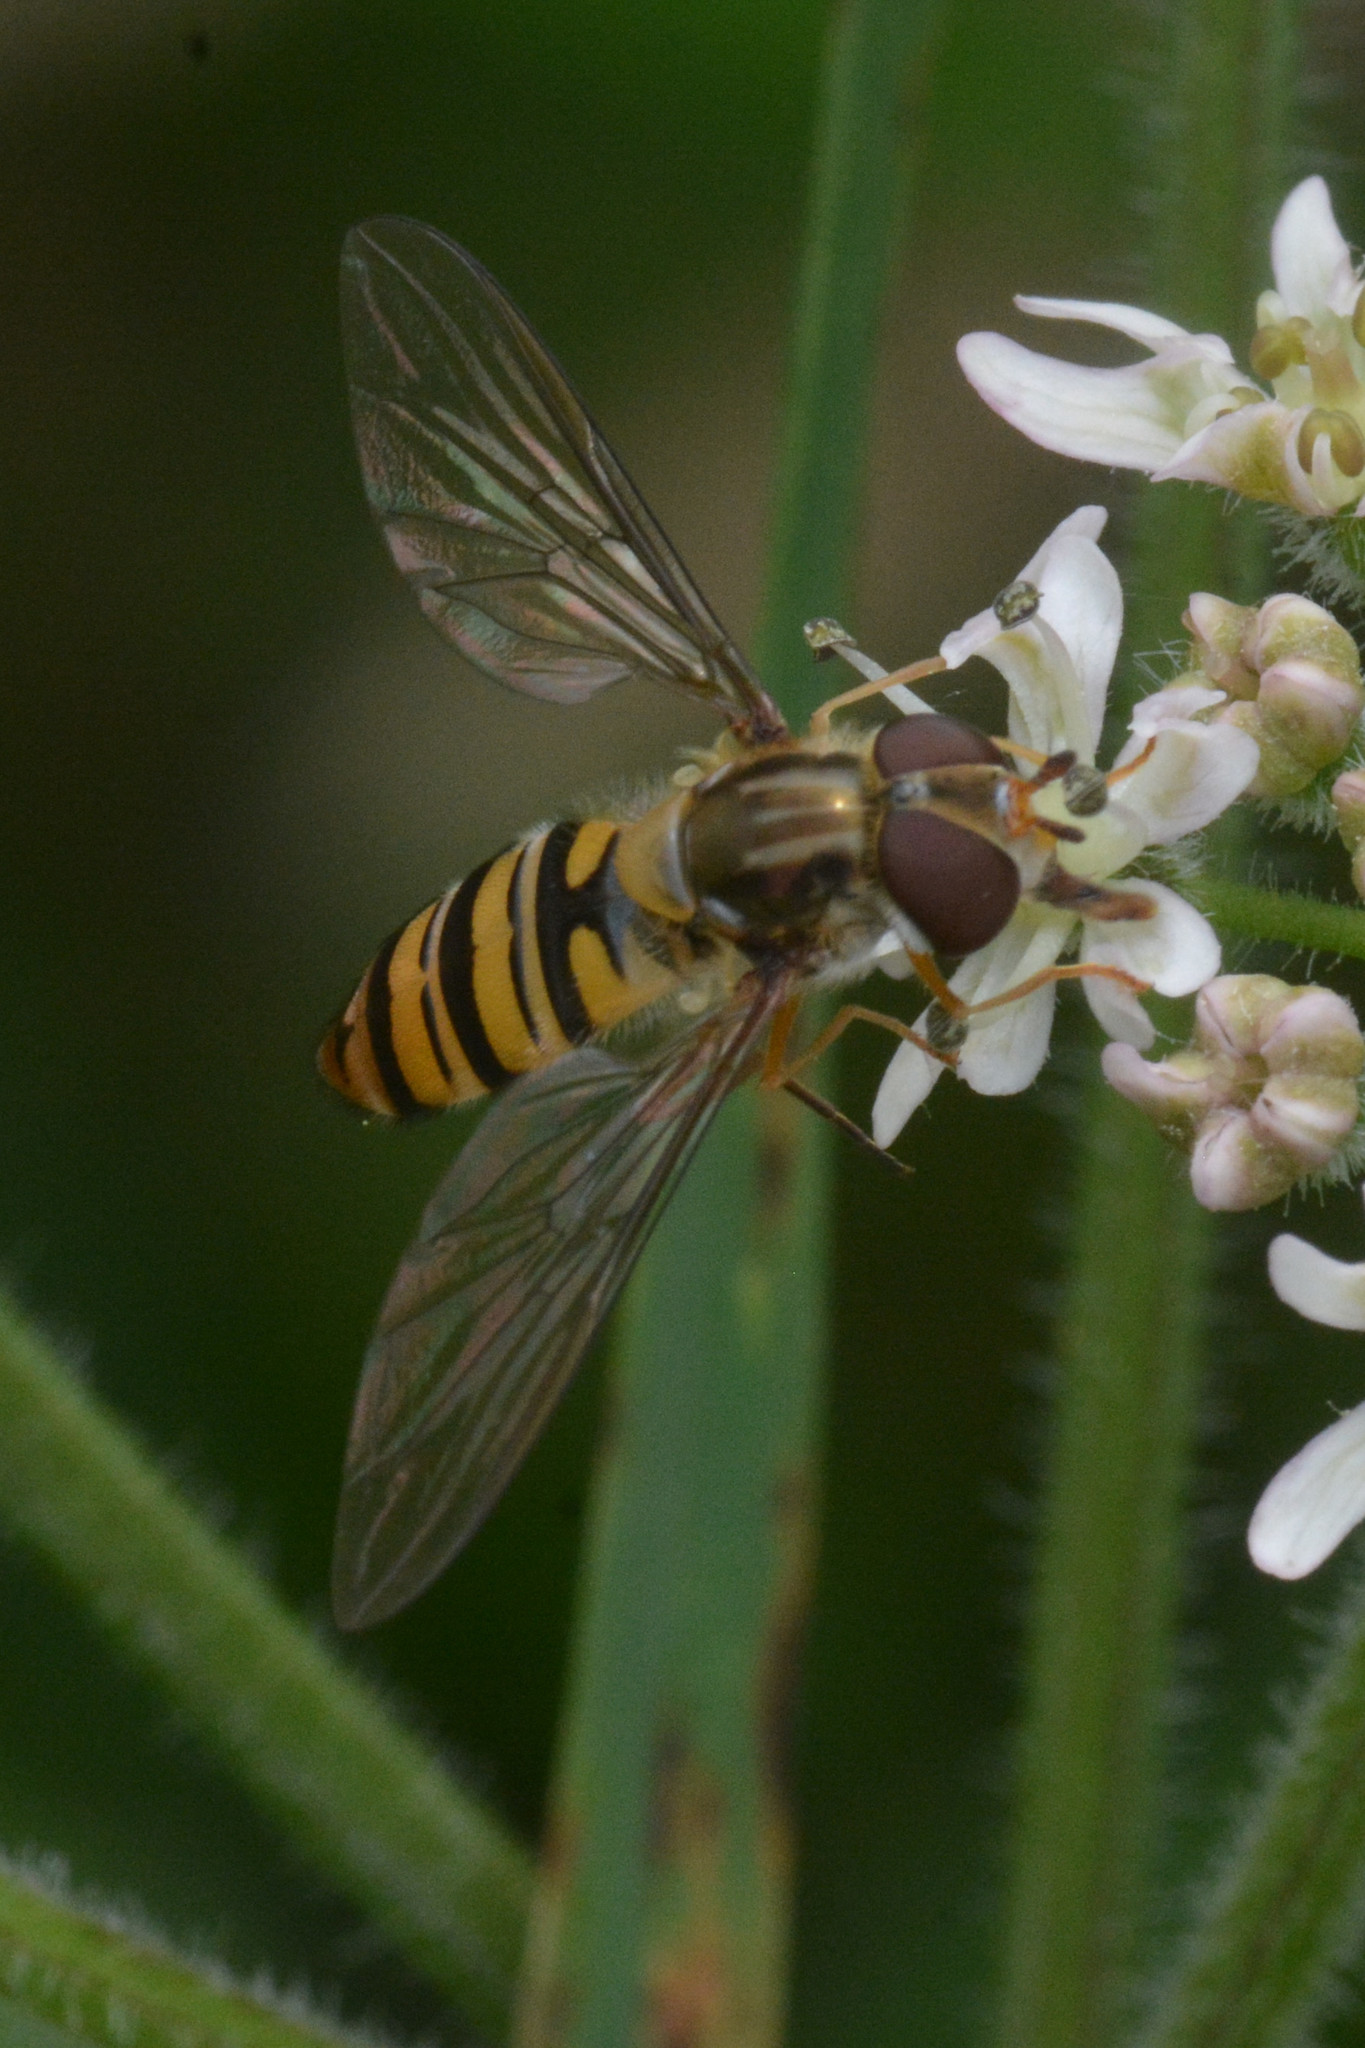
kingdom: Animalia
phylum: Arthropoda
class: Insecta
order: Diptera
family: Syrphidae
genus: Episyrphus
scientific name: Episyrphus balteatus
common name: Marmalade hoverfly
